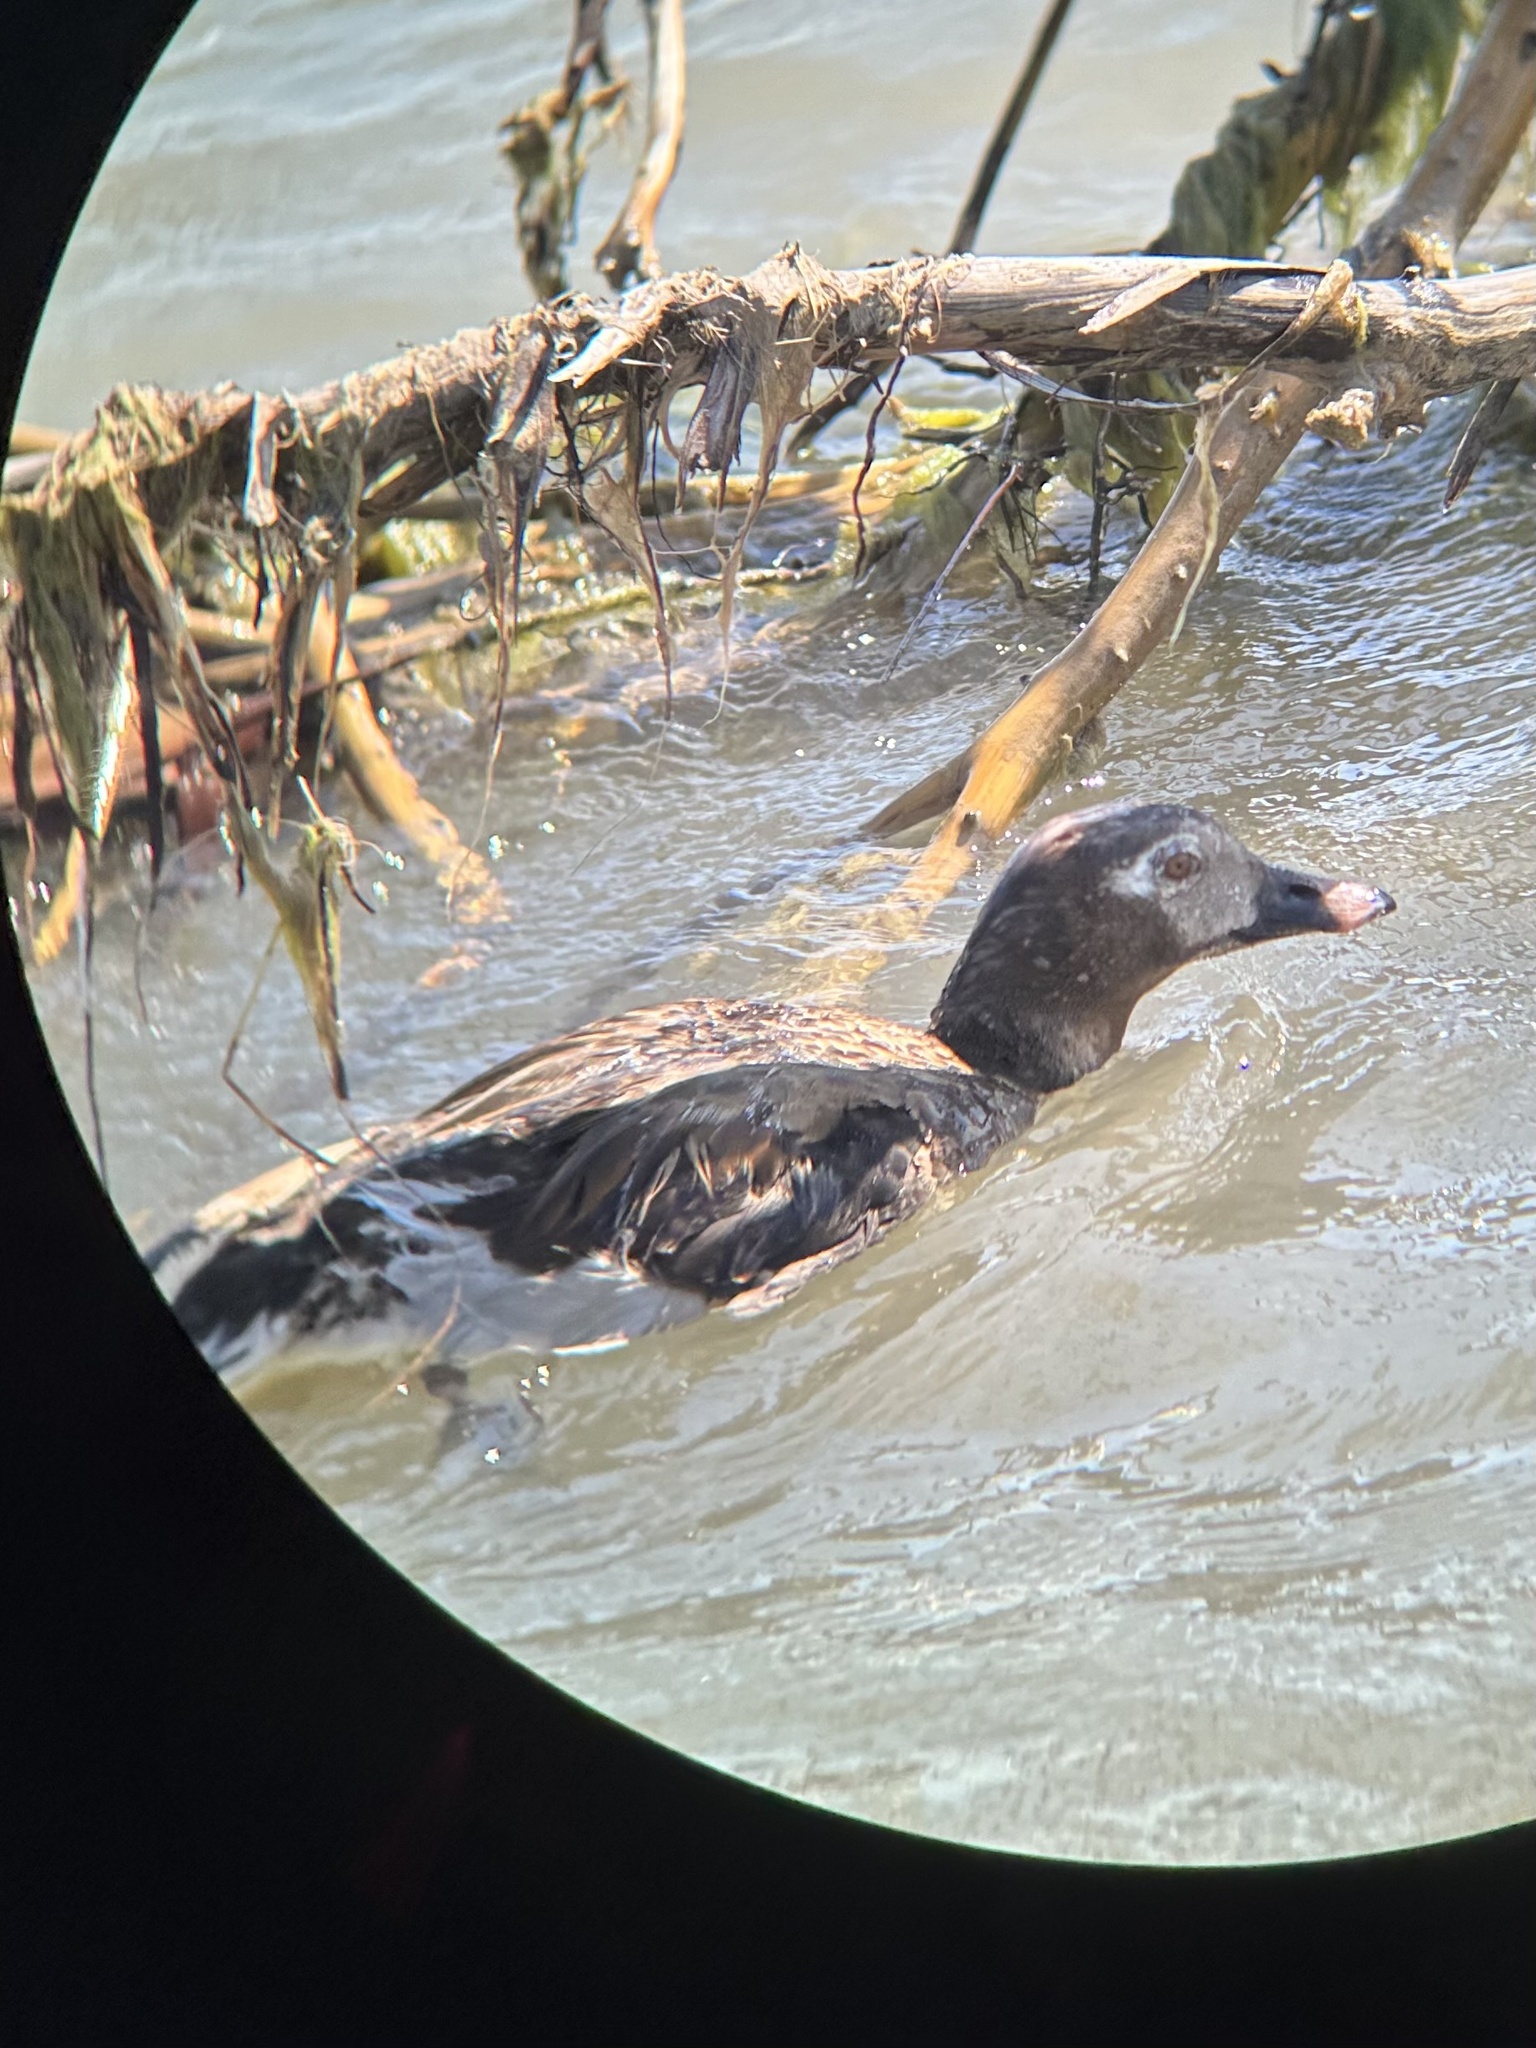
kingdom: Animalia
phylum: Chordata
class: Aves
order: Anseriformes
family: Anatidae
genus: Clangula
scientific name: Clangula hyemalis
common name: Long-tailed duck
